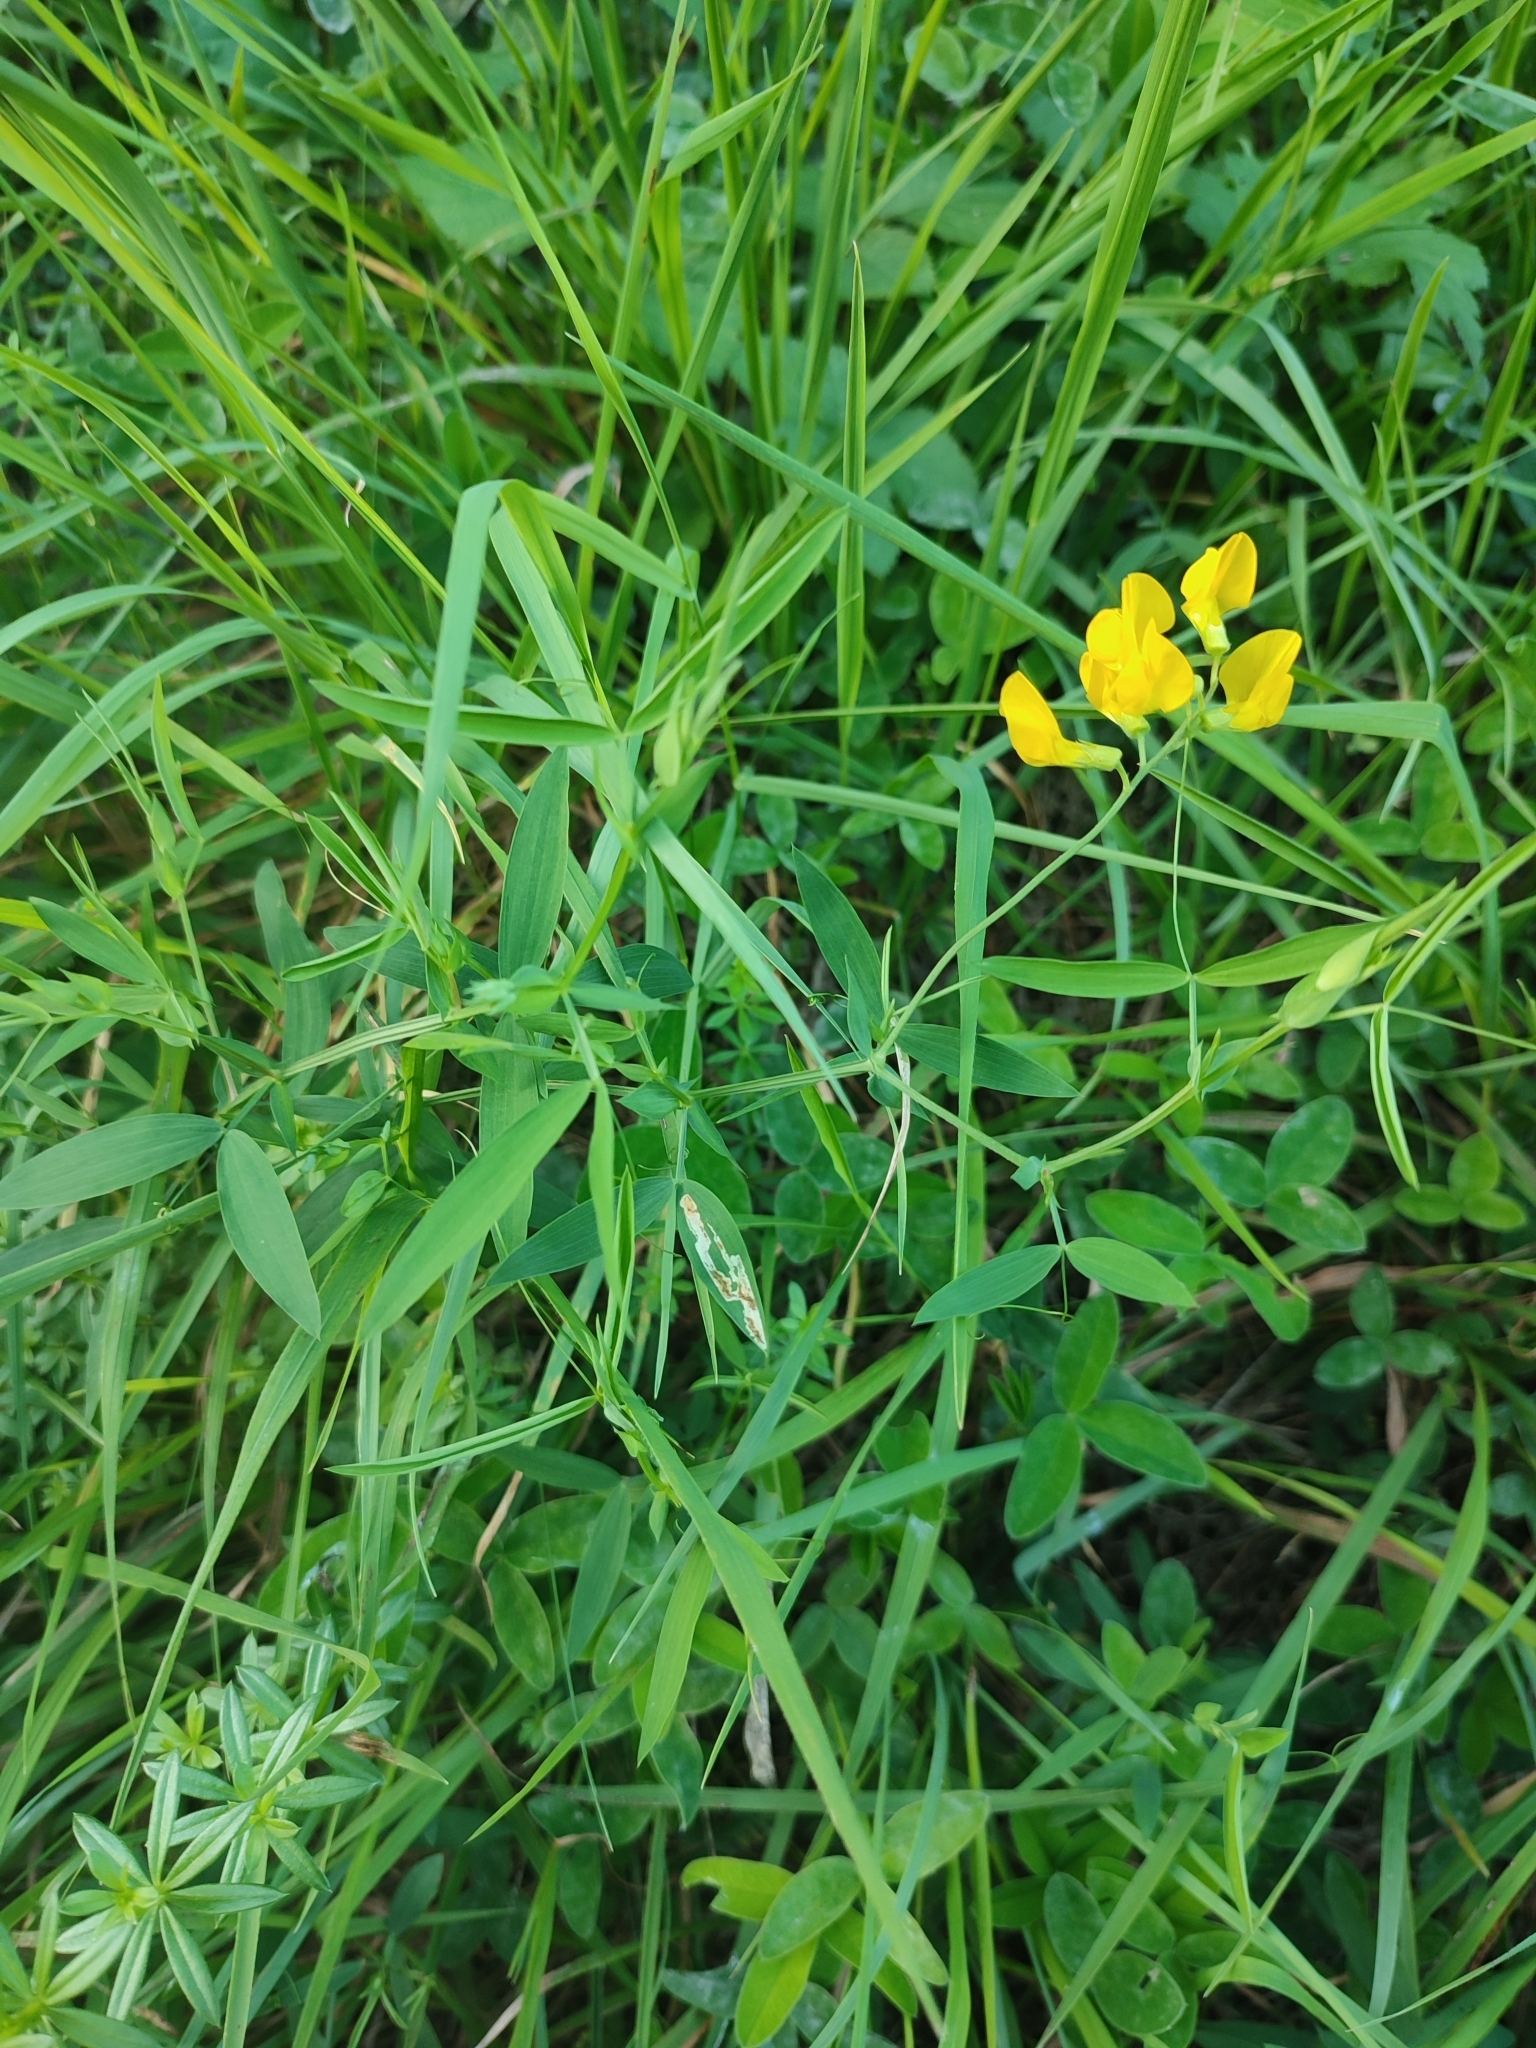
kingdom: Plantae
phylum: Tracheophyta
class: Magnoliopsida
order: Fabales
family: Fabaceae
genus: Lathyrus
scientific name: Lathyrus pratensis
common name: Meadow vetchling
